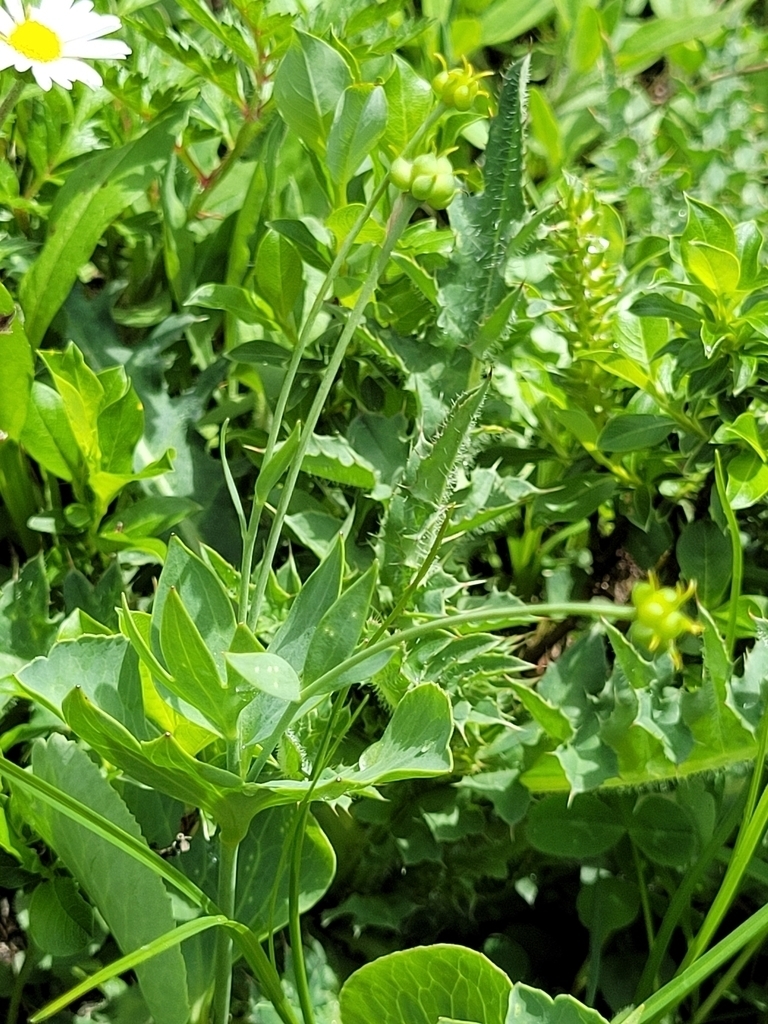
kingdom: Plantae
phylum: Tracheophyta
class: Magnoliopsida
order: Ranunculales
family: Ranunculaceae
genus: Ranunculus
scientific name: Ranunculus hybridus
